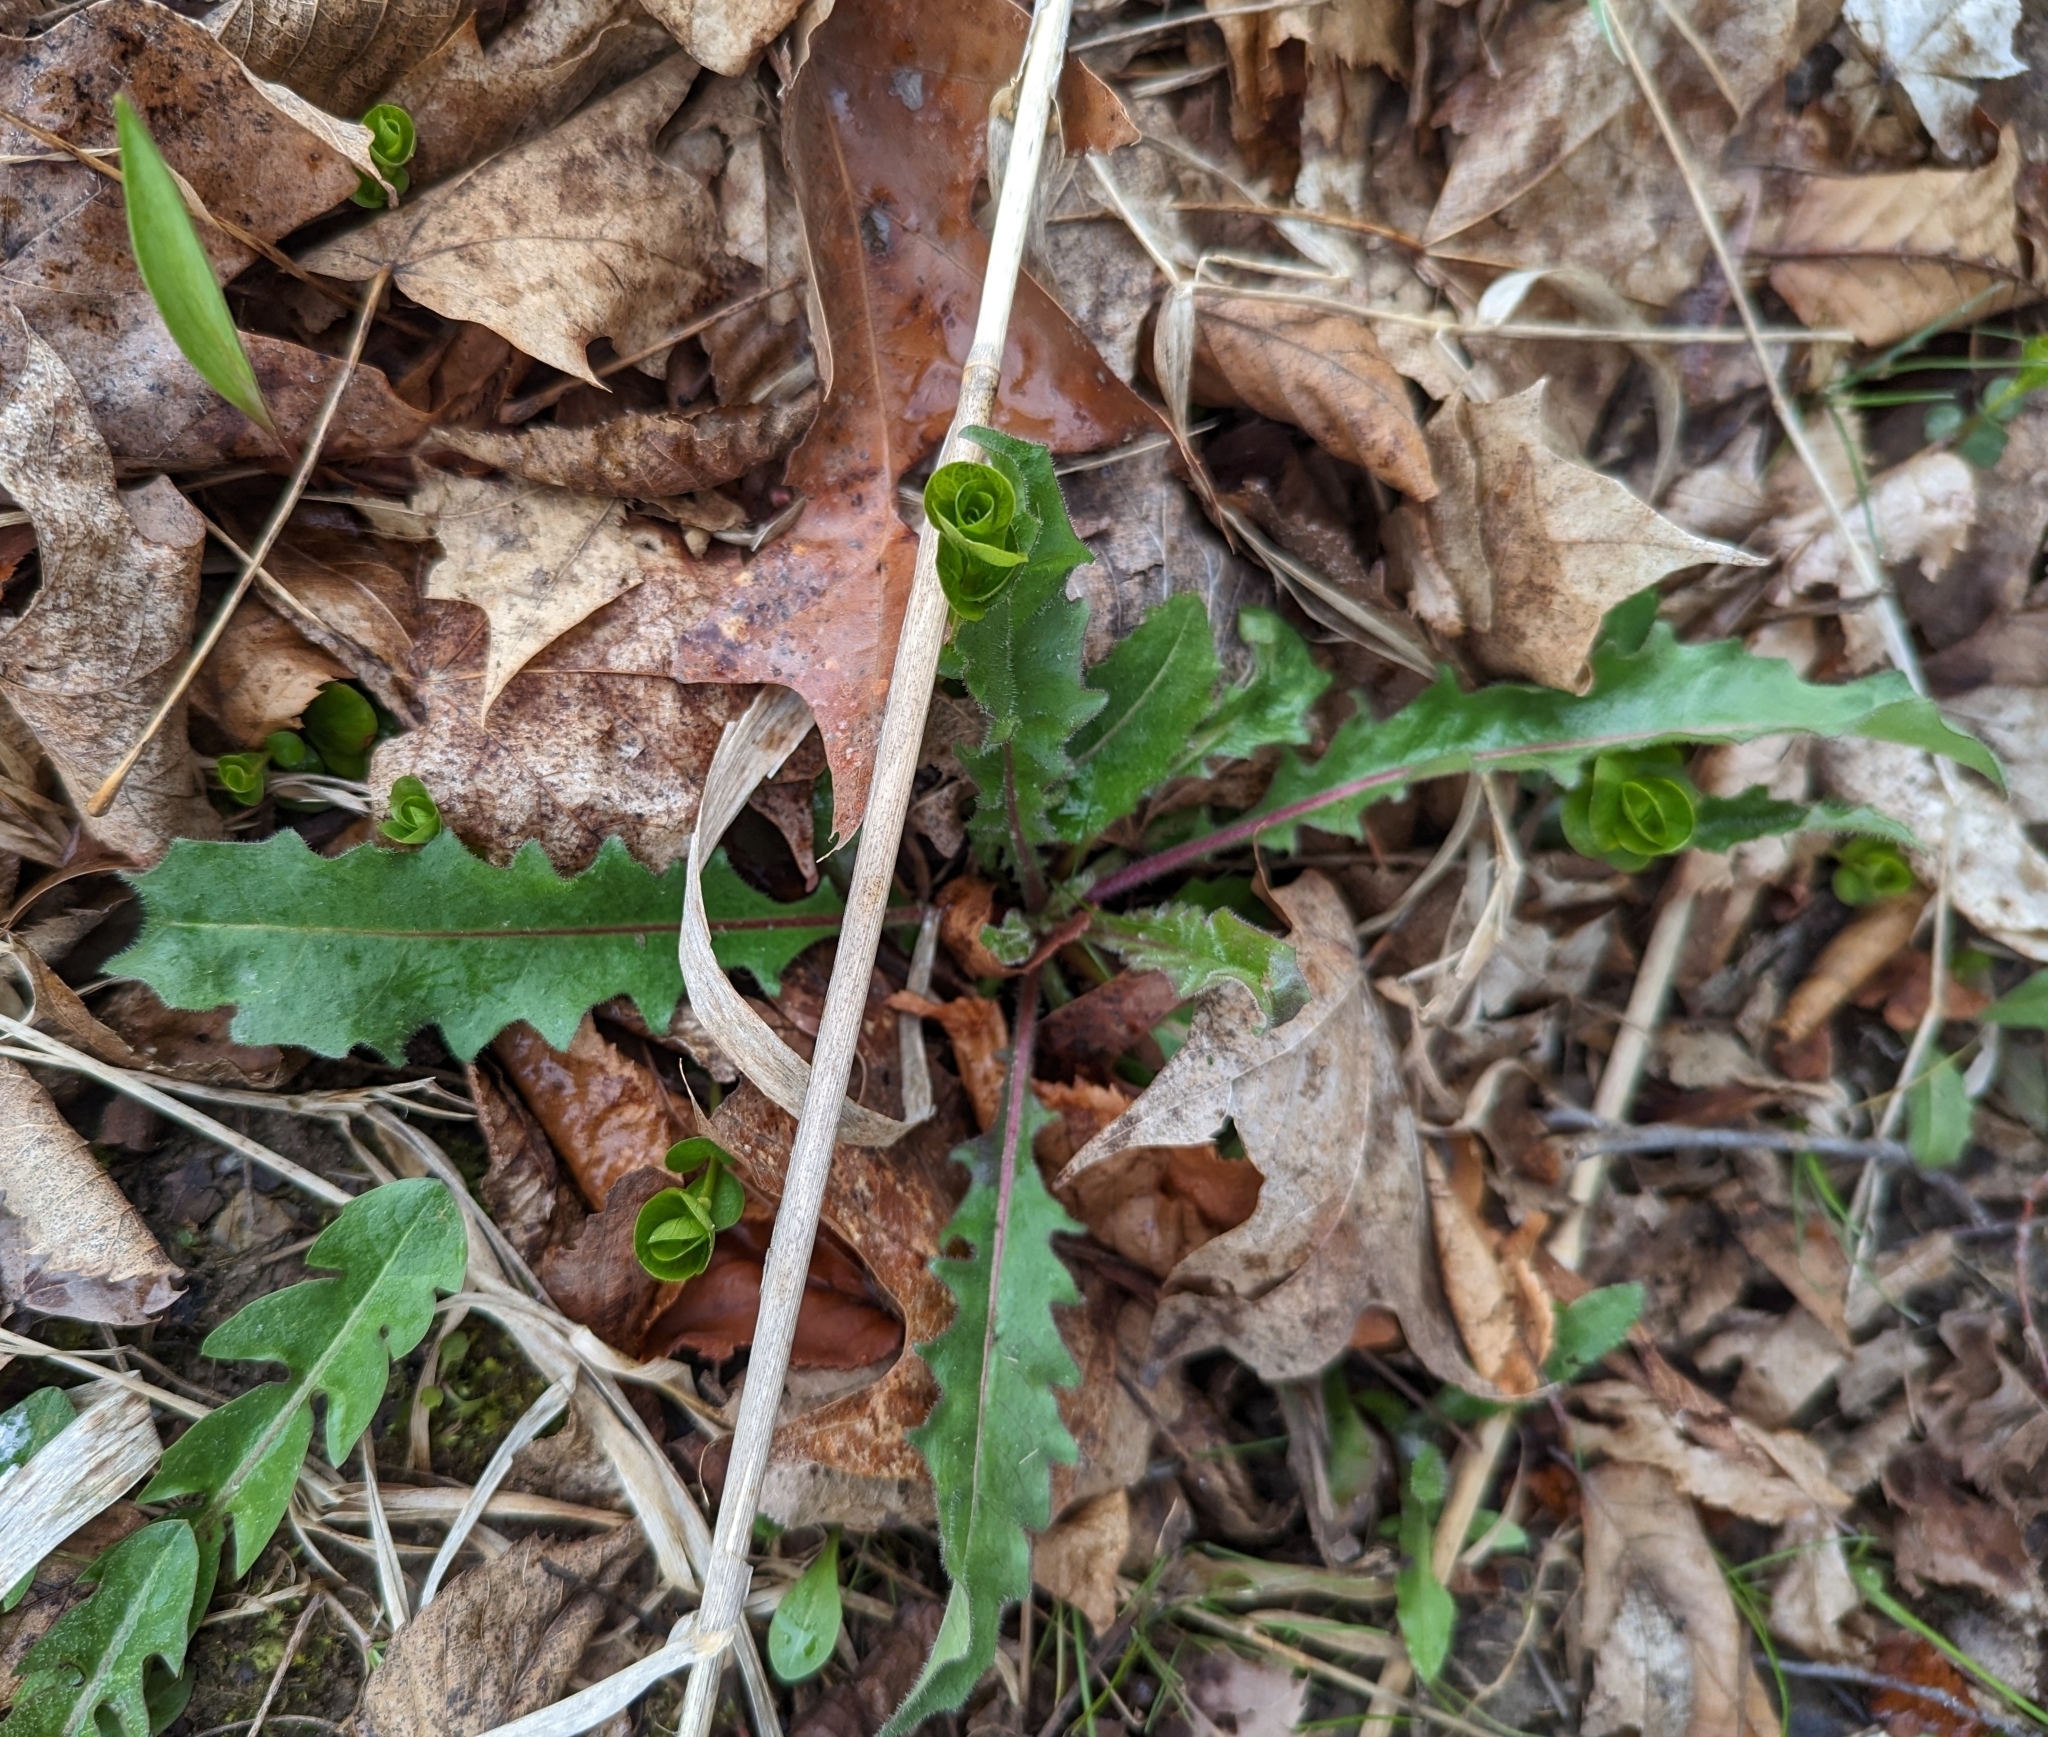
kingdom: Plantae
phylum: Tracheophyta
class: Magnoliopsida
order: Brassicales
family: Brassicaceae
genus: Capsella
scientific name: Capsella bursa-pastoris
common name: Shepherd's purse
